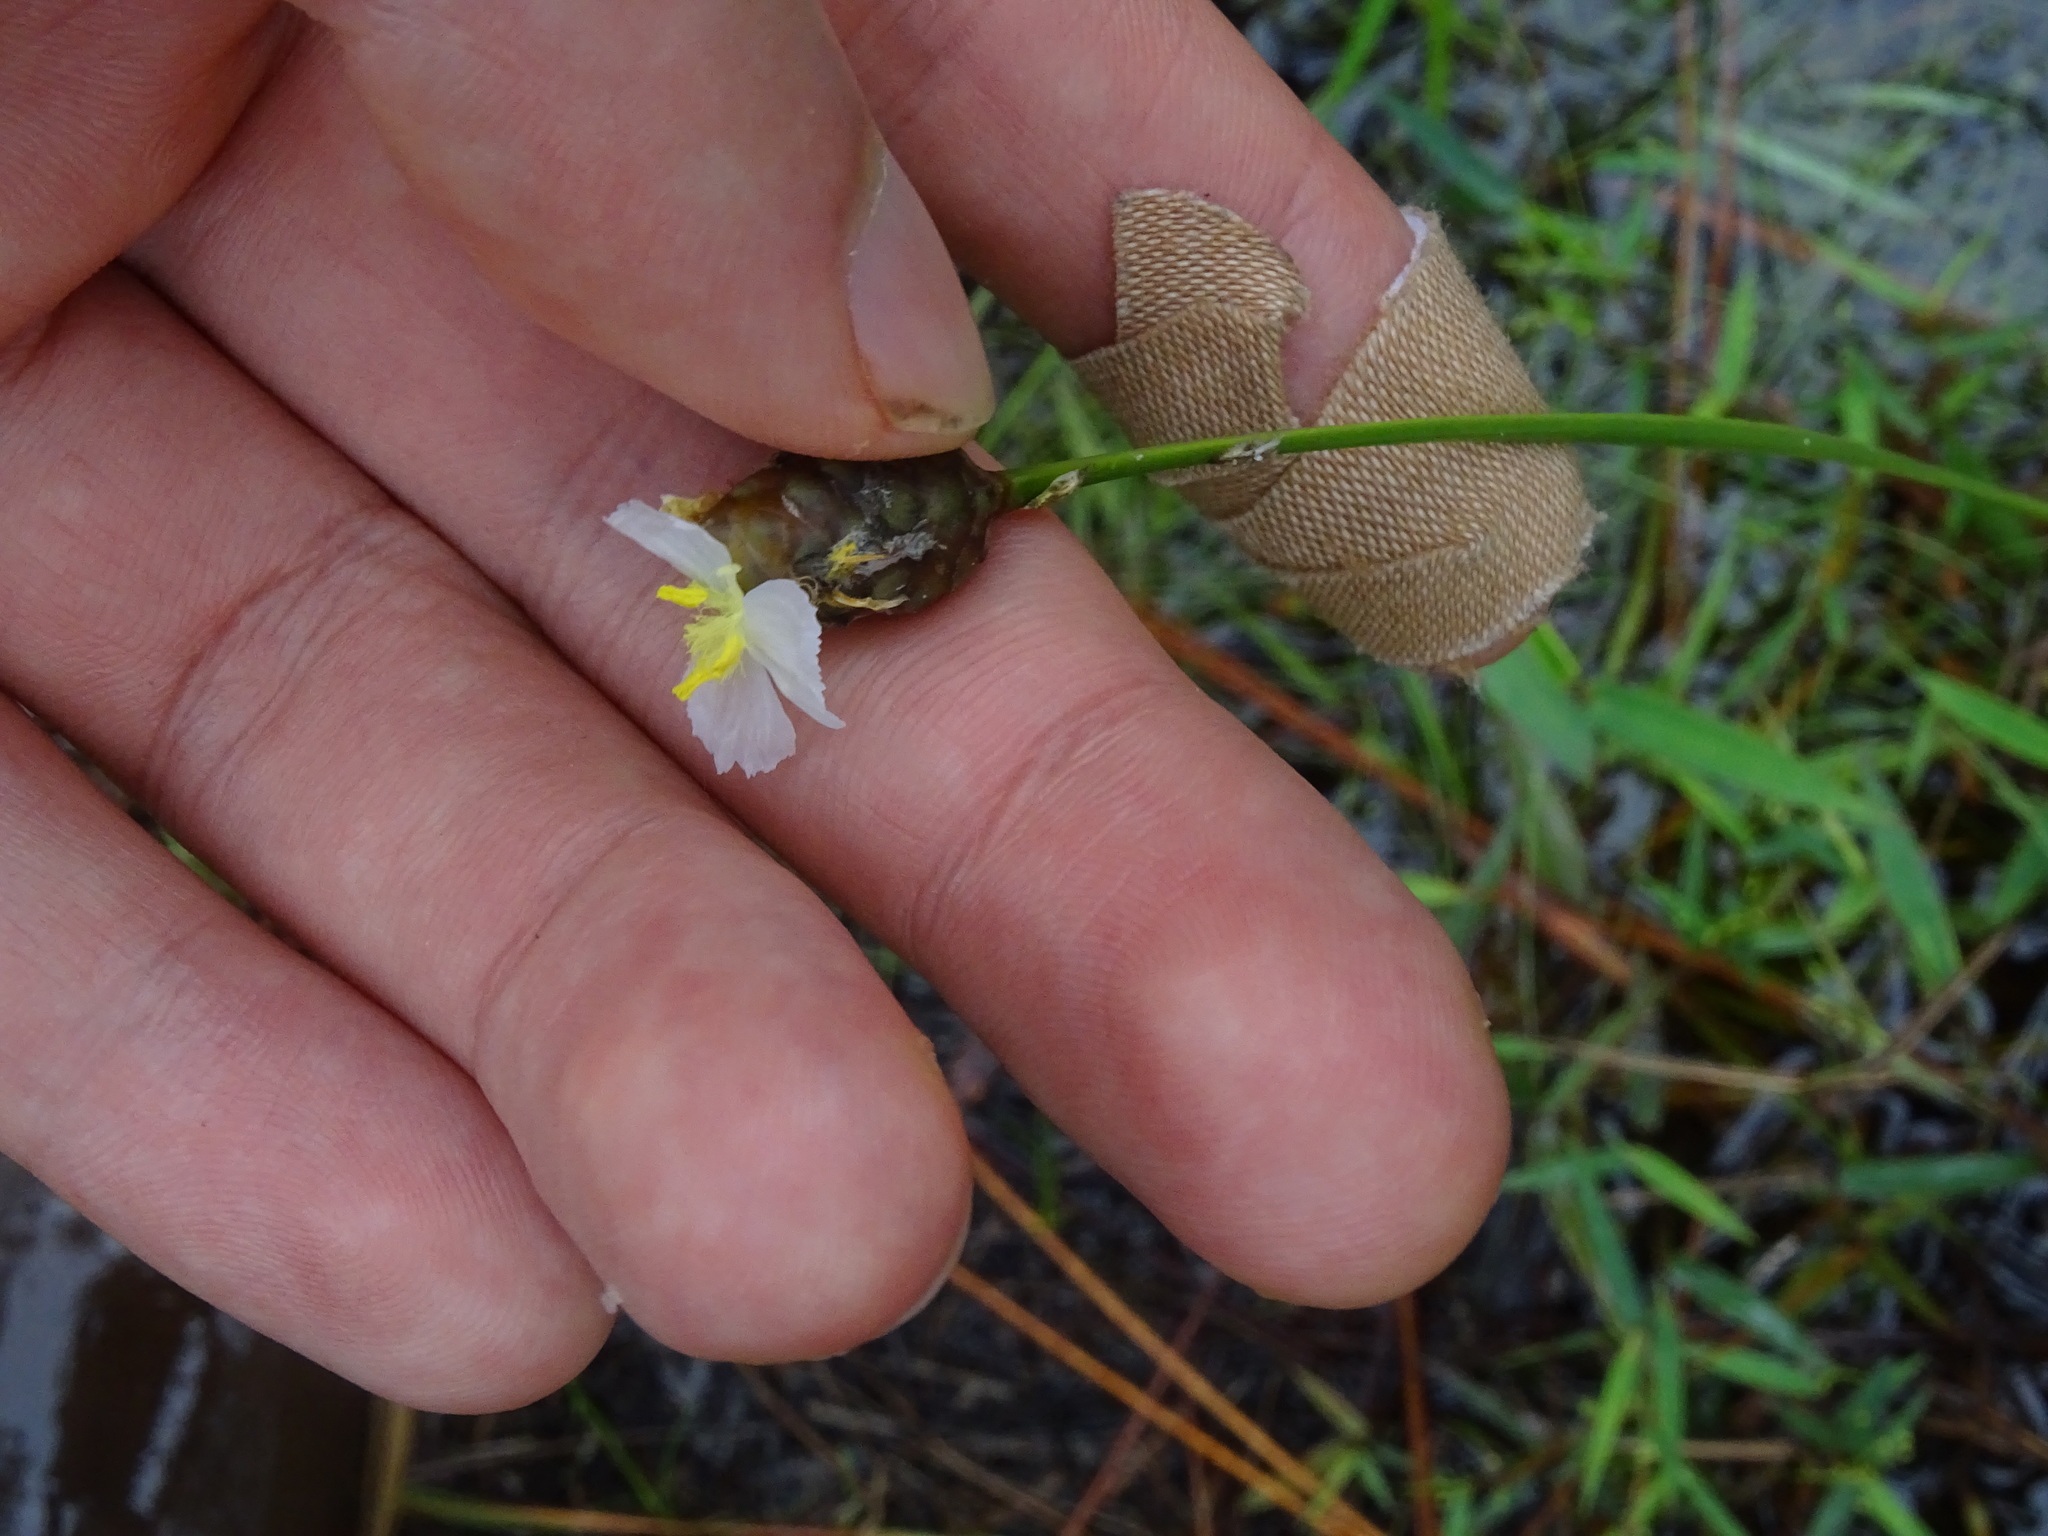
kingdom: Plantae
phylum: Tracheophyta
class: Liliopsida
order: Poales
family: Xyridaceae
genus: Xyris
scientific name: Xyris platylepis
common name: Tall yelloweyed grass
